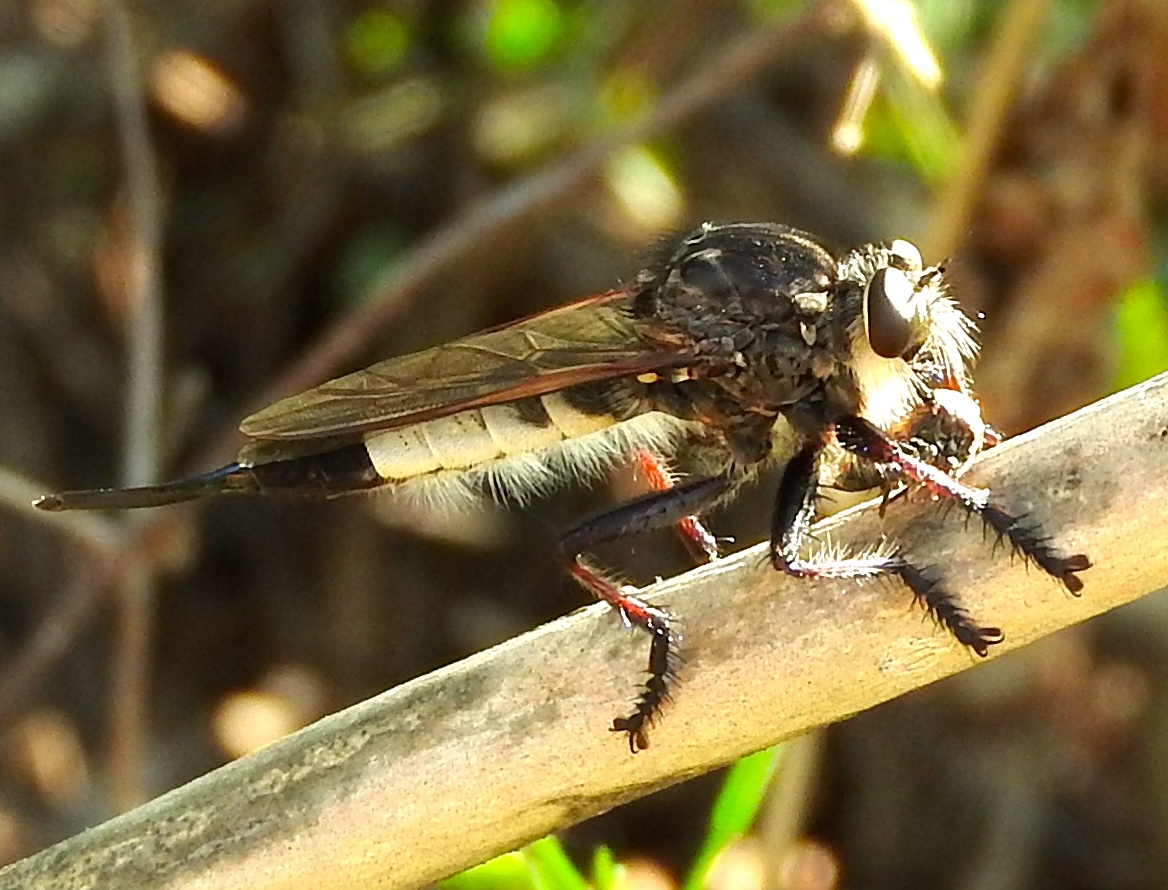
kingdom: Animalia
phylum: Arthropoda
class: Insecta
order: Diptera
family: Asilidae
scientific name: Asilidae
